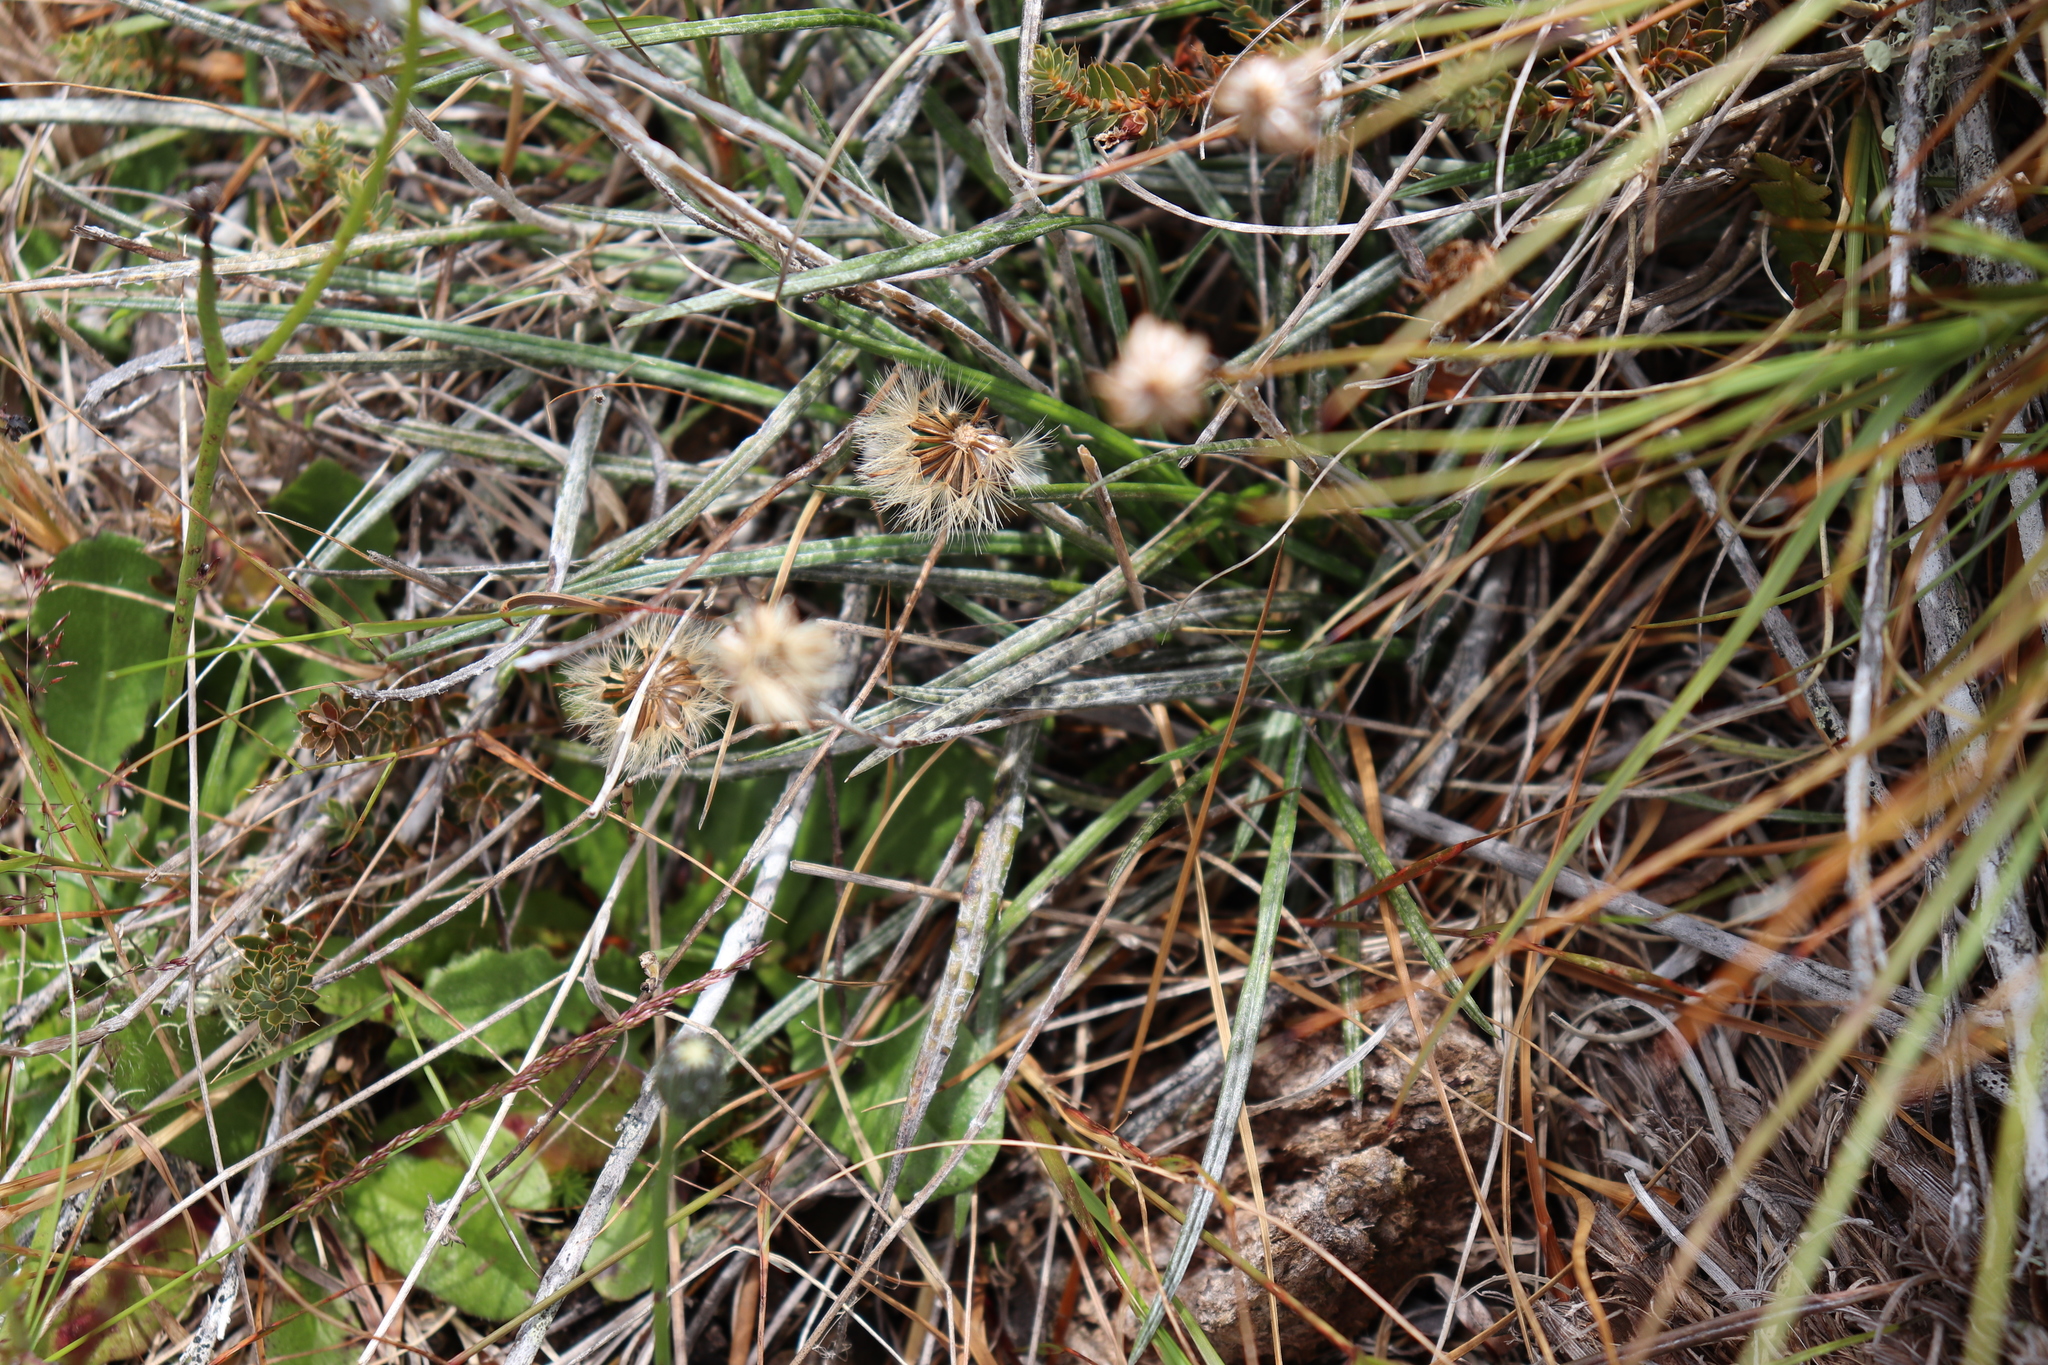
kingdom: Plantae
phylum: Tracheophyta
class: Magnoliopsida
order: Asterales
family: Asteraceae
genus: Celmisia
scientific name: Celmisia gracilenta
